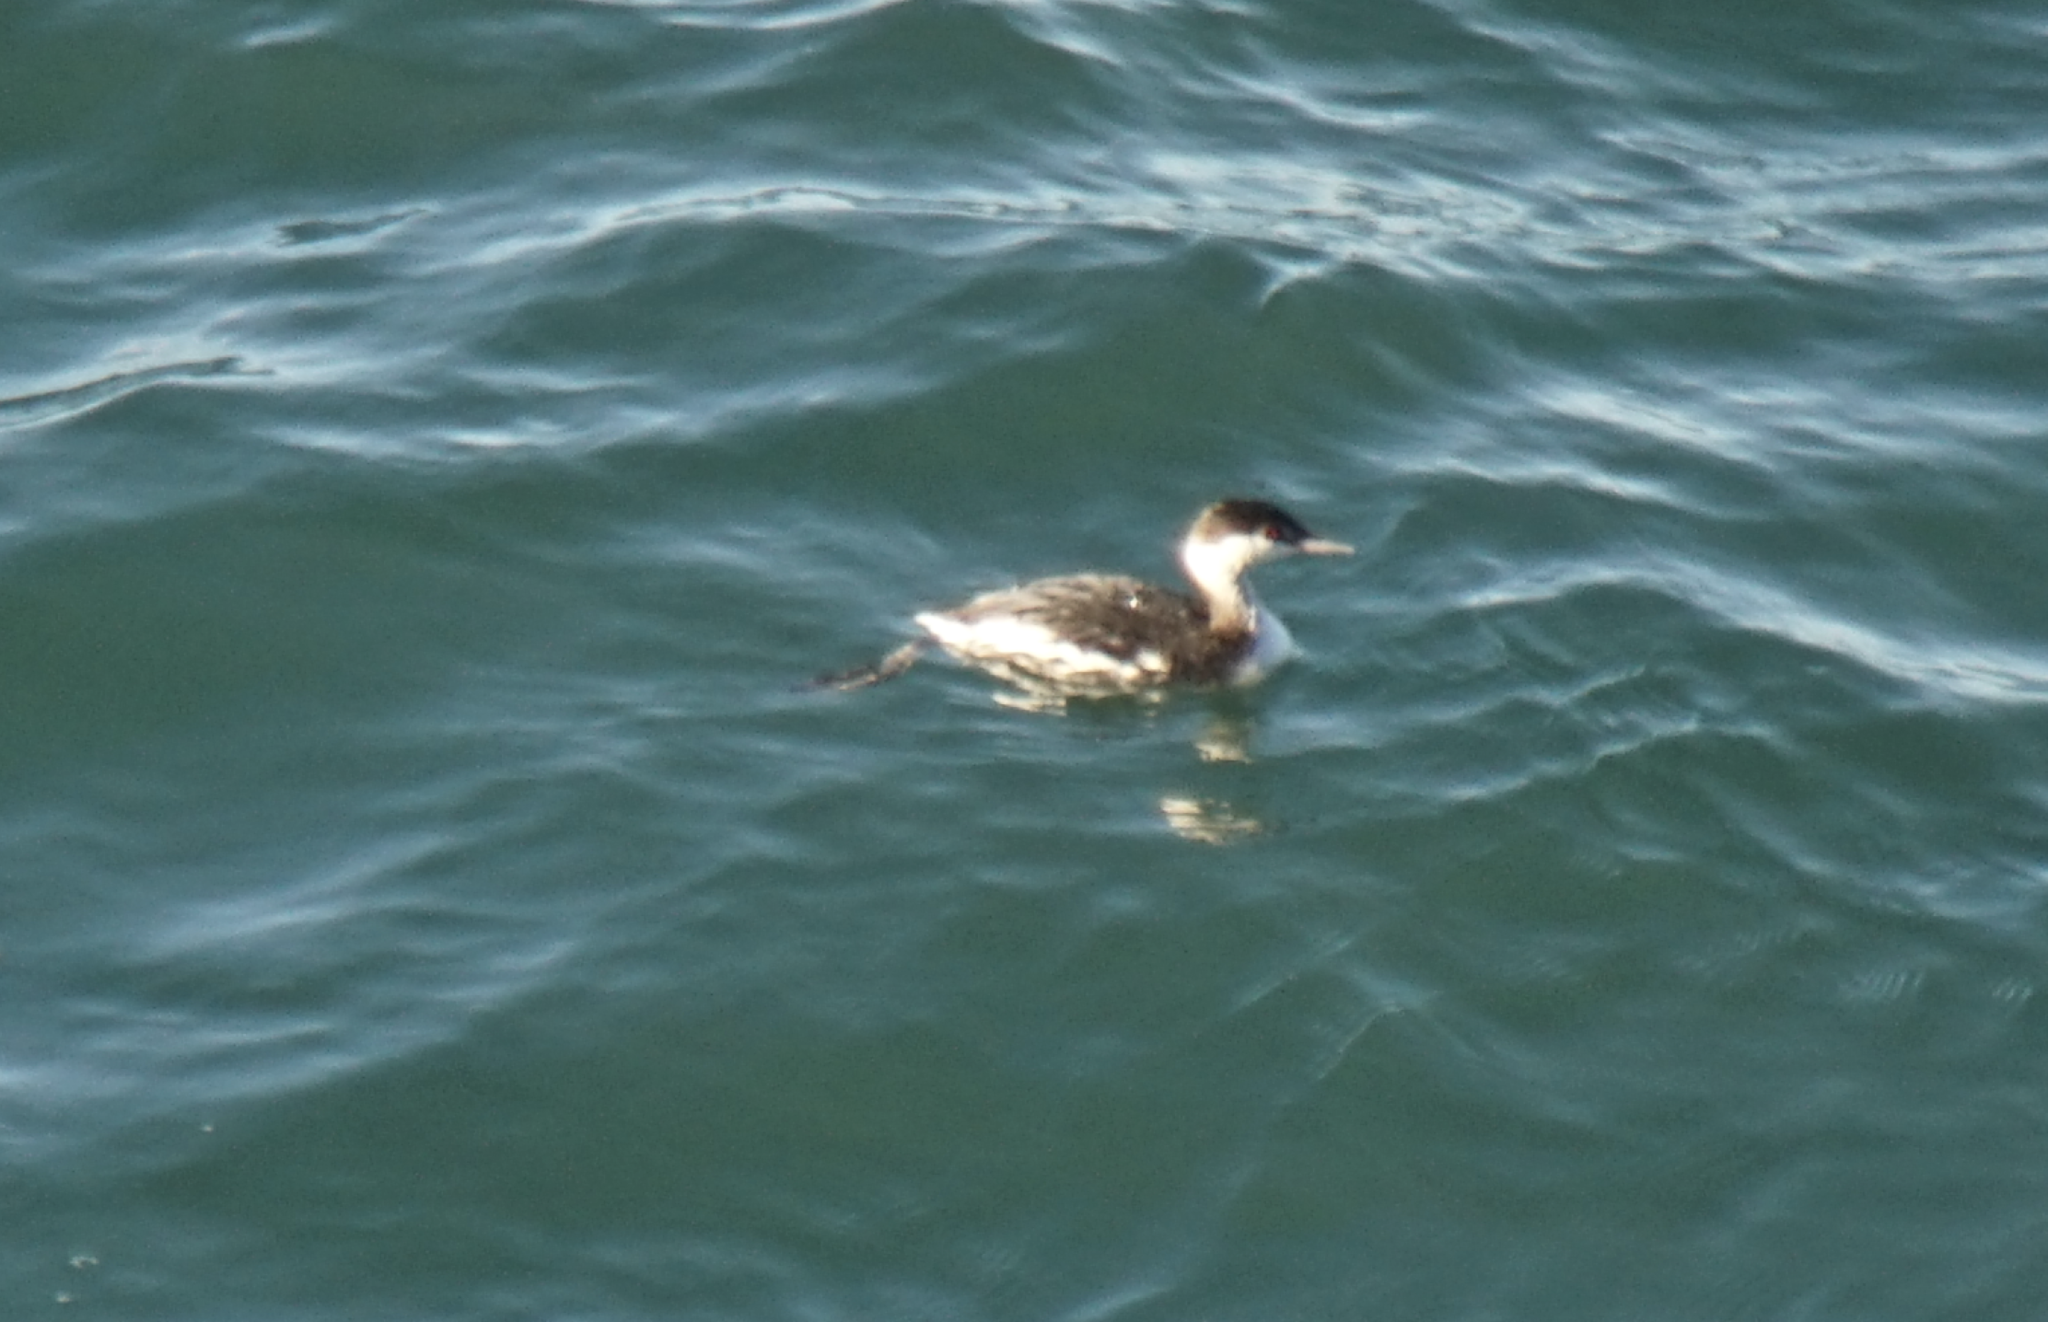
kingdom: Animalia
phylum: Chordata
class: Aves
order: Podicipediformes
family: Podicipedidae
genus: Podiceps
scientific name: Podiceps auritus
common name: Horned grebe
